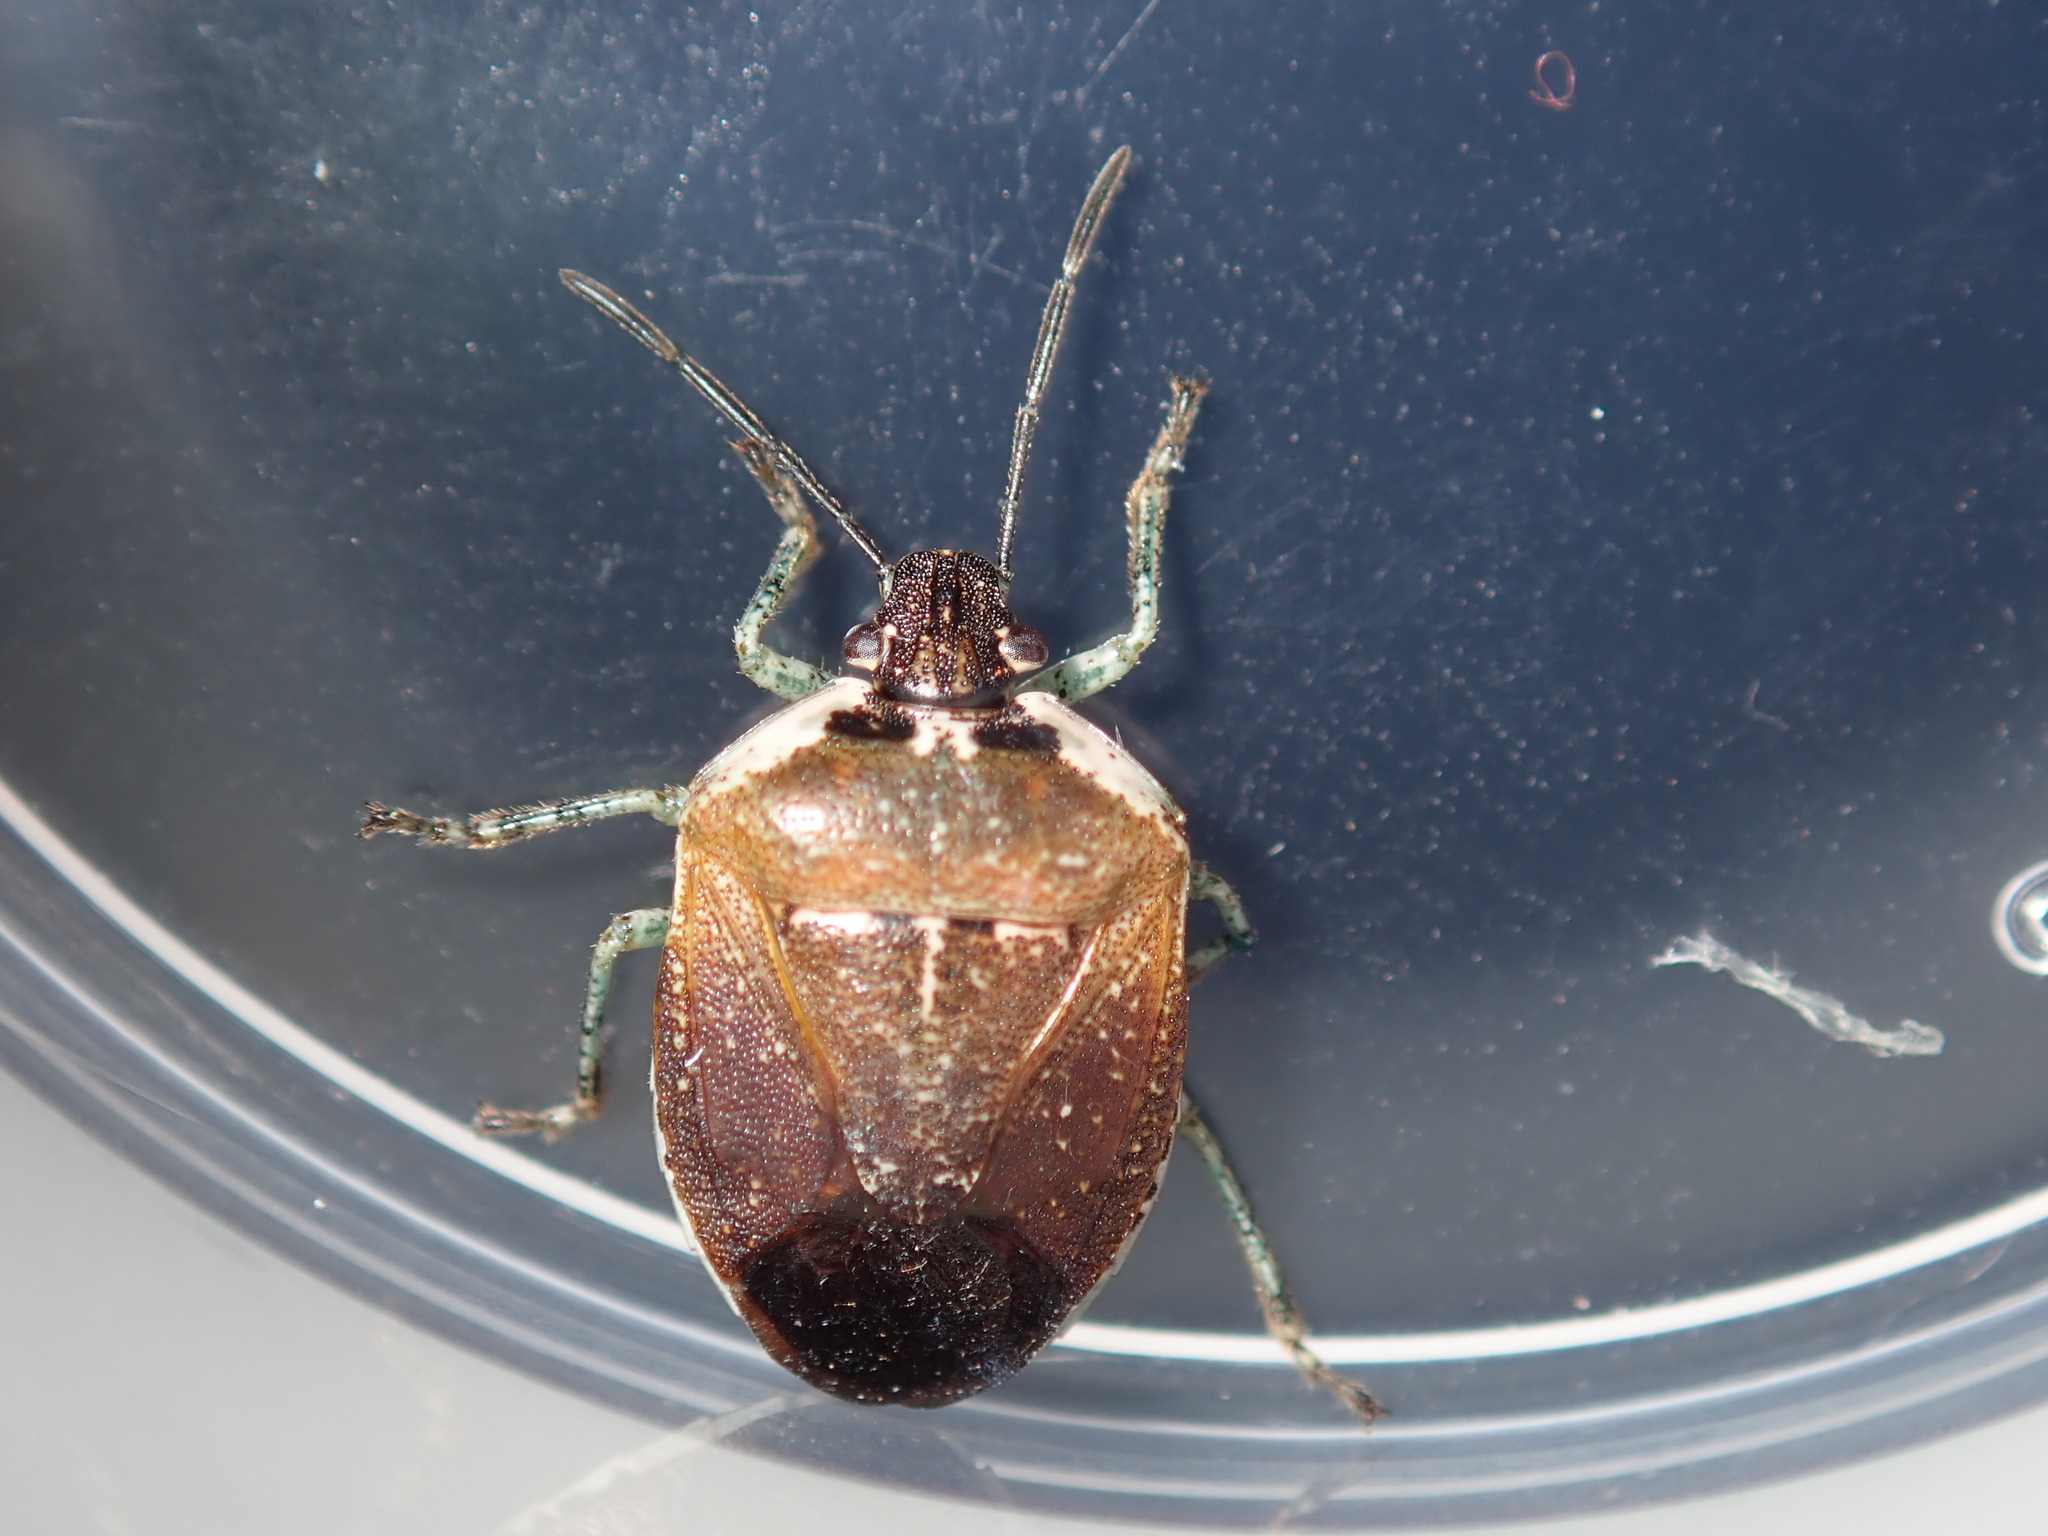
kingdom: Animalia
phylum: Arthropoda
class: Insecta
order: Hemiptera
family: Pentatomidae
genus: Monteithiella
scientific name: Monteithiella
